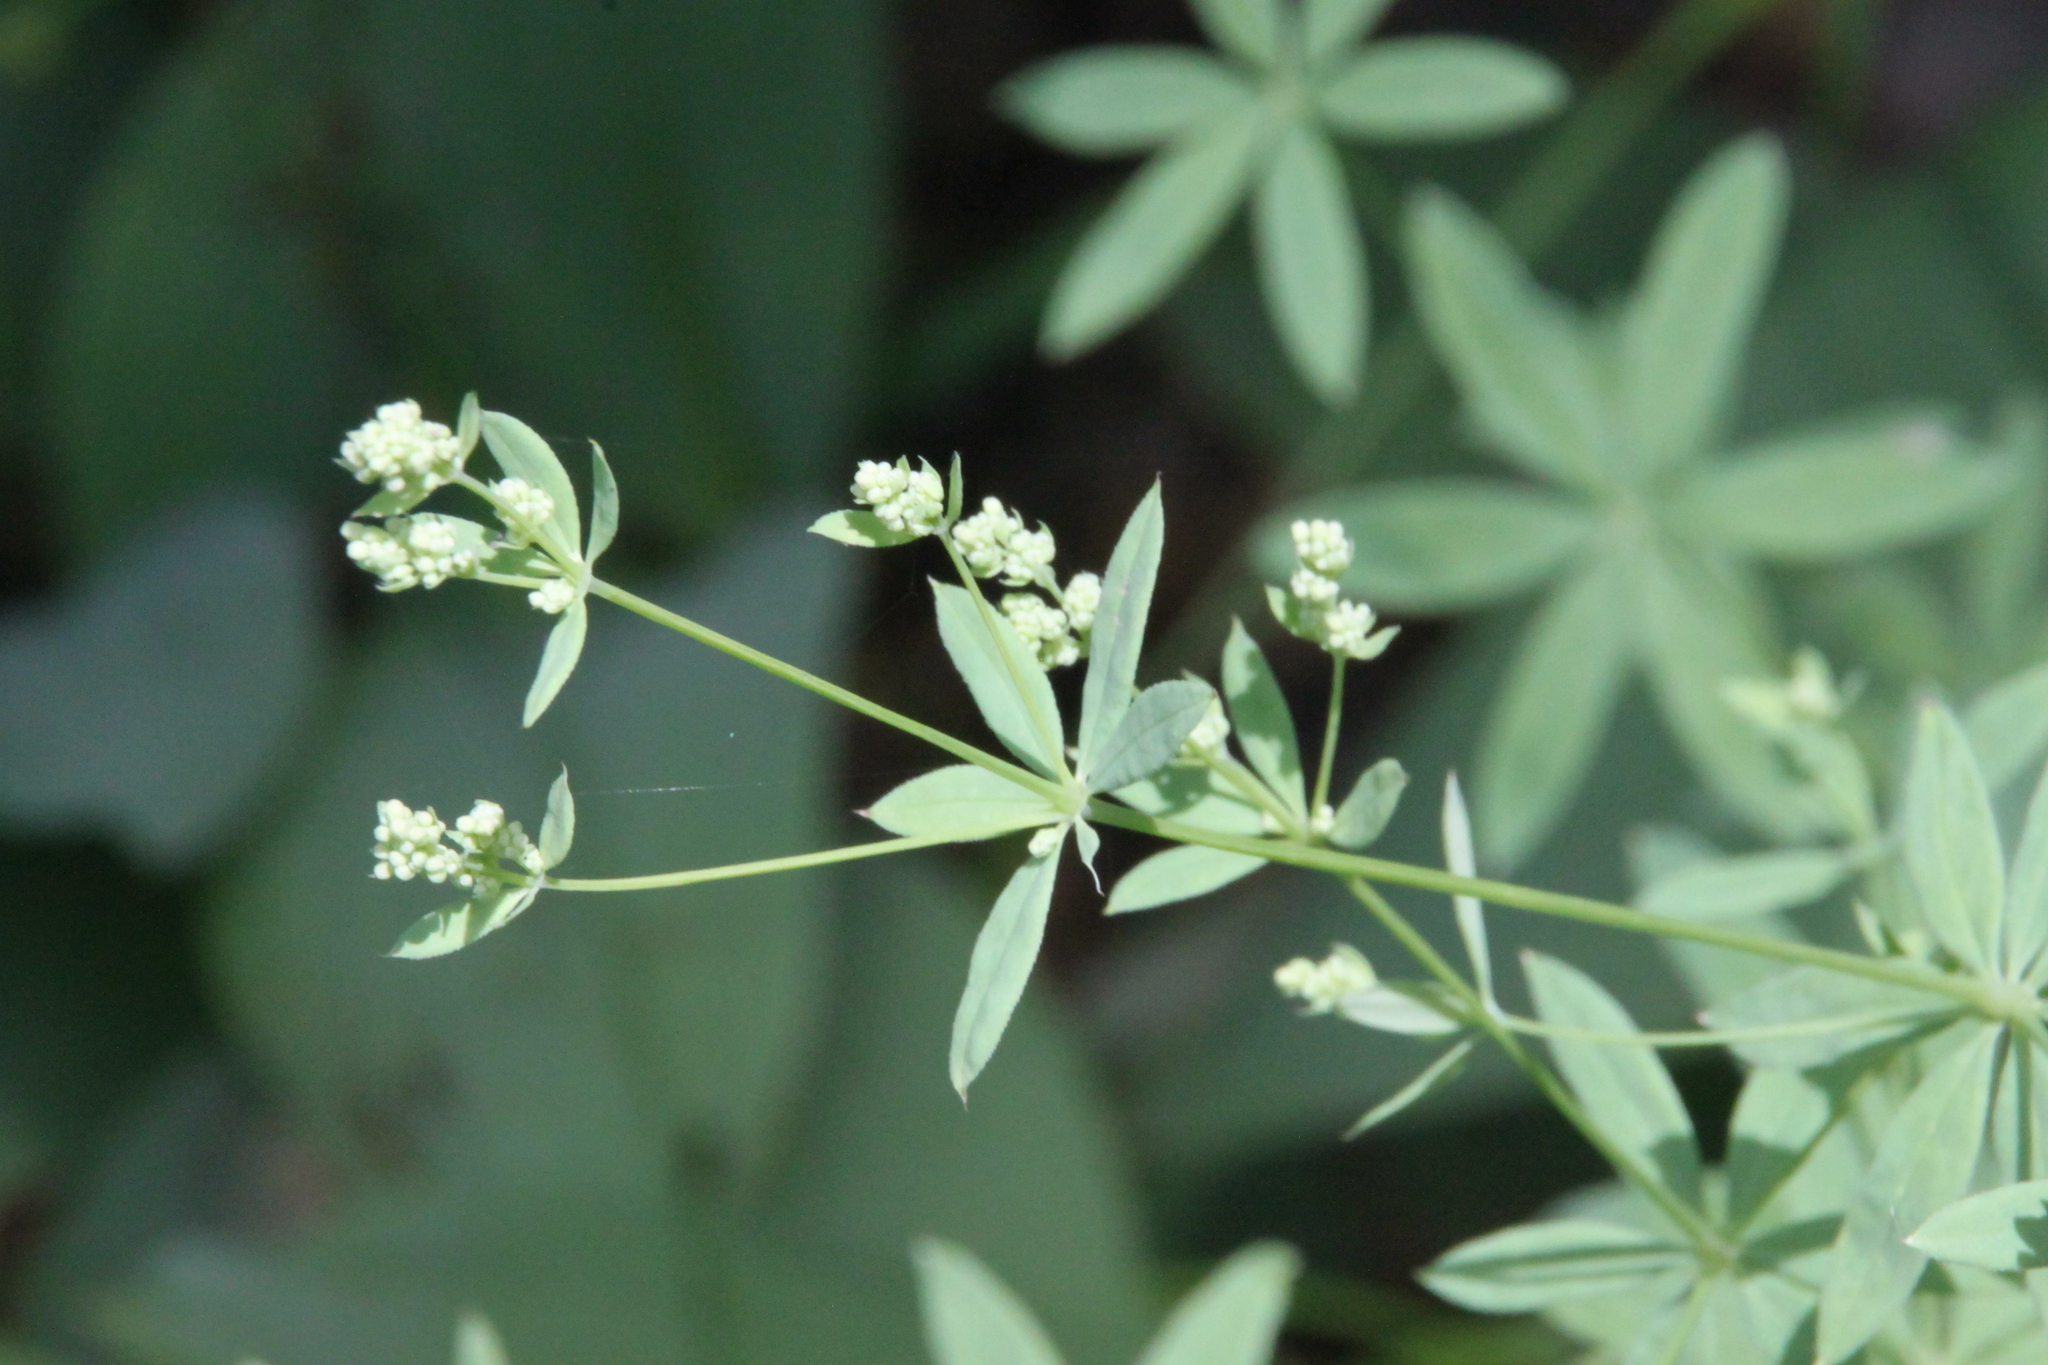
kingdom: Plantae
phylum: Tracheophyta
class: Magnoliopsida
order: Gentianales
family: Rubiaceae
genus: Galium
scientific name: Galium intermedium
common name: Bedstraw
